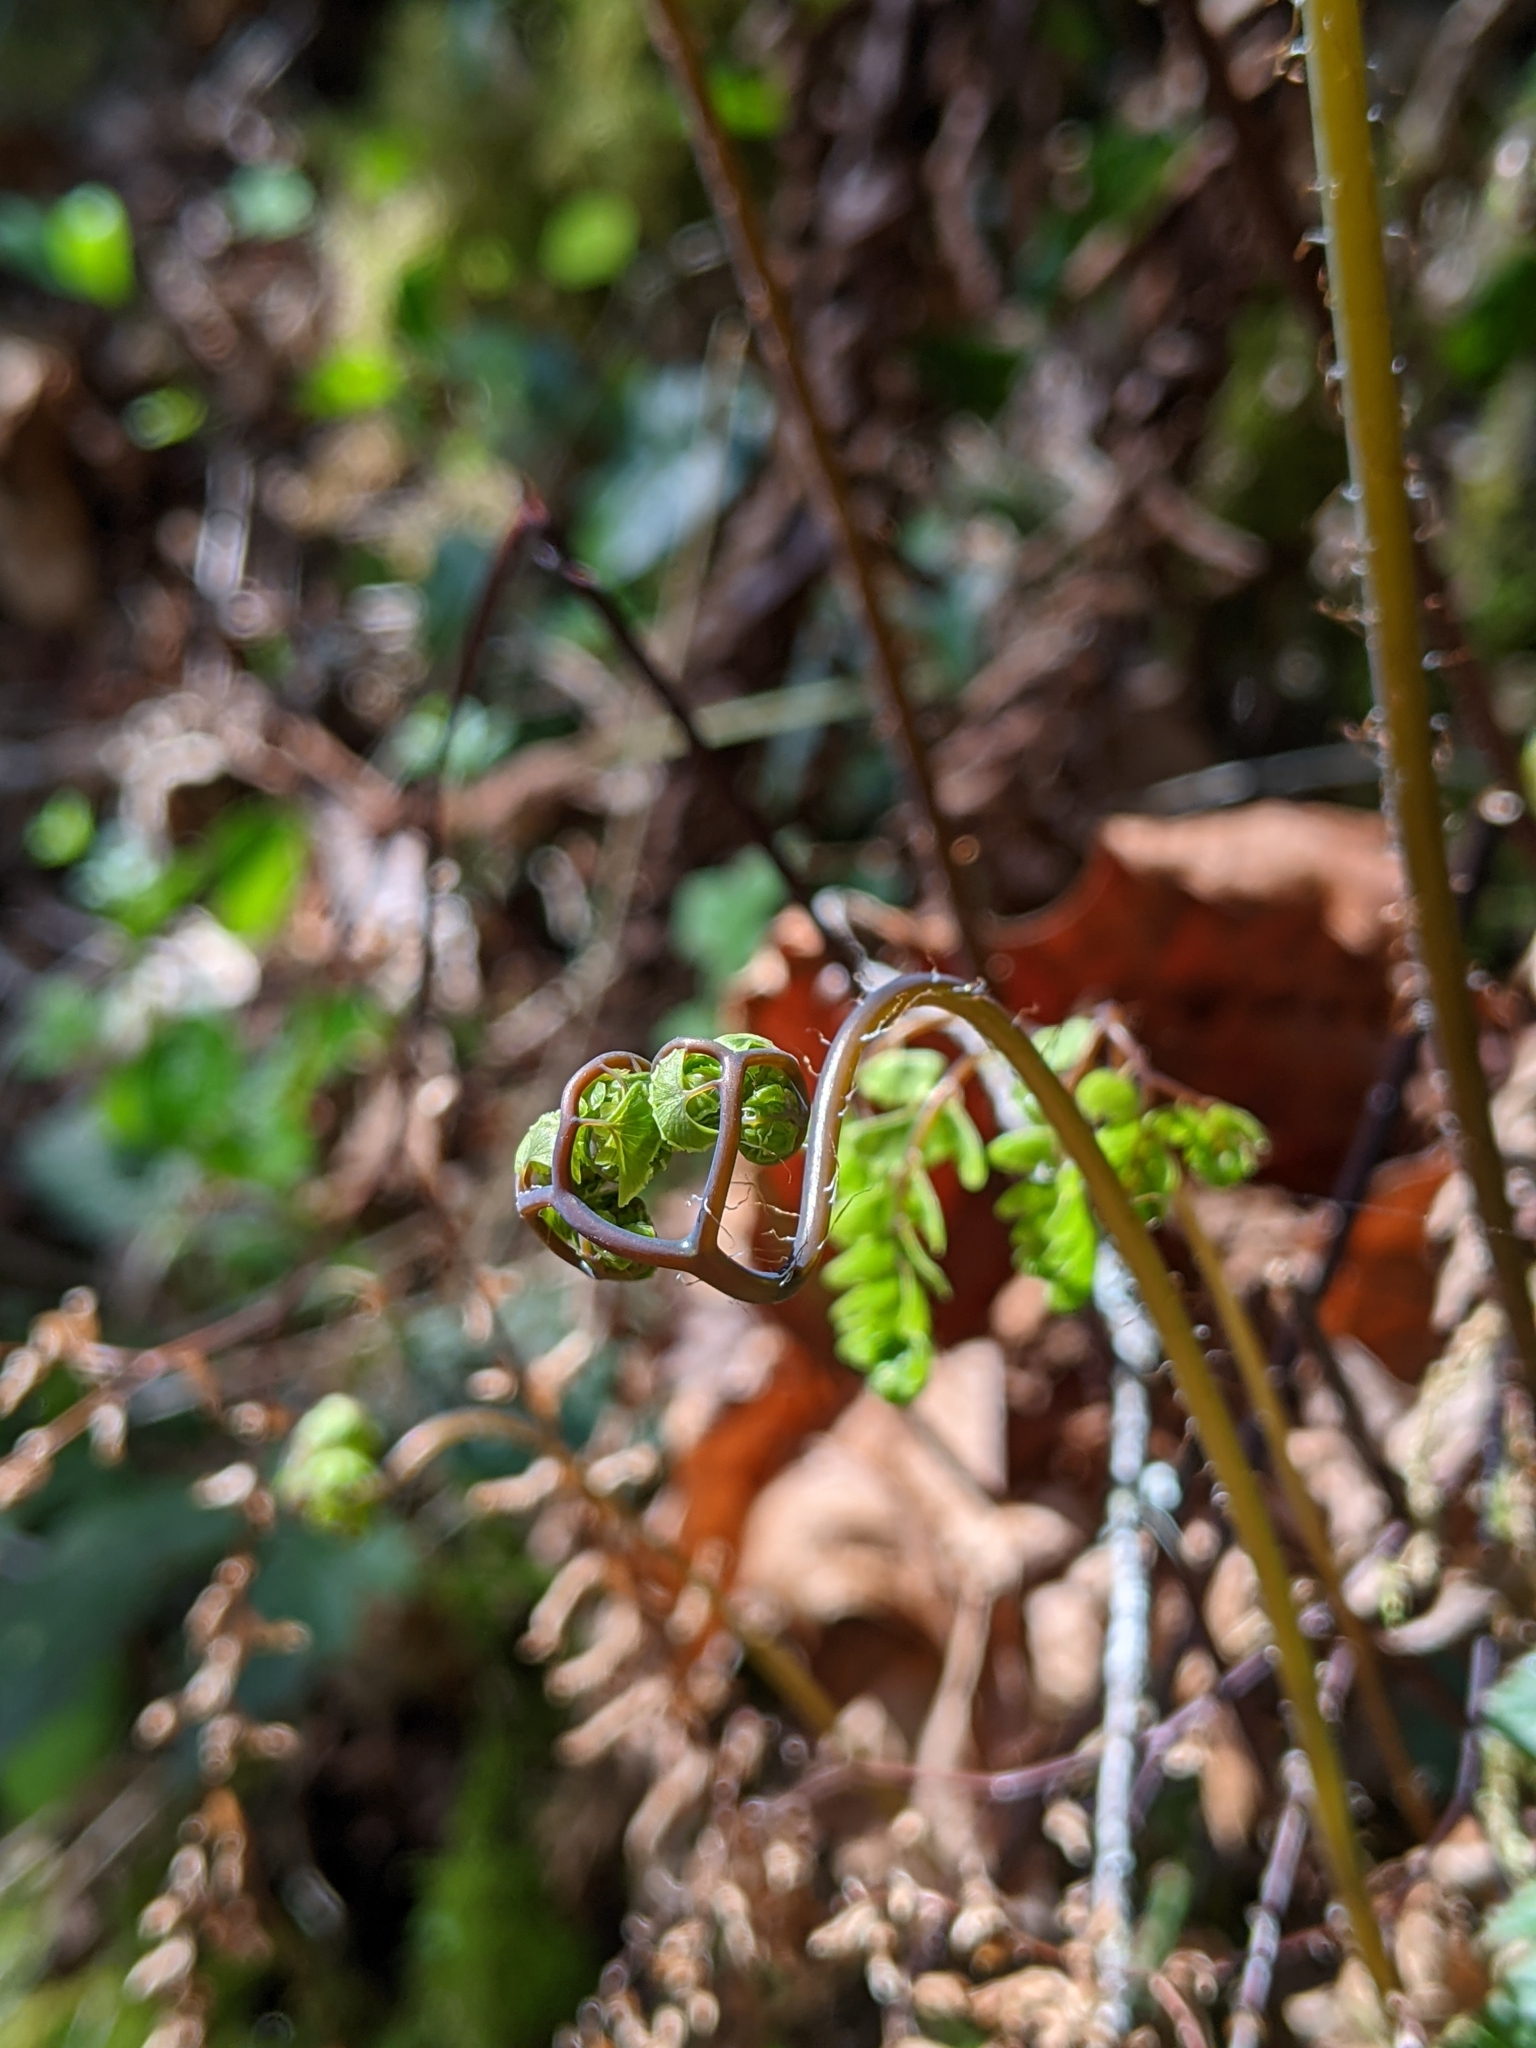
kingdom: Plantae
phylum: Tracheophyta
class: Polypodiopsida
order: Polypodiales
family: Pteridaceae
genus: Adiantum
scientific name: Adiantum aleuticum
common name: Aleutian maidenhair fern
